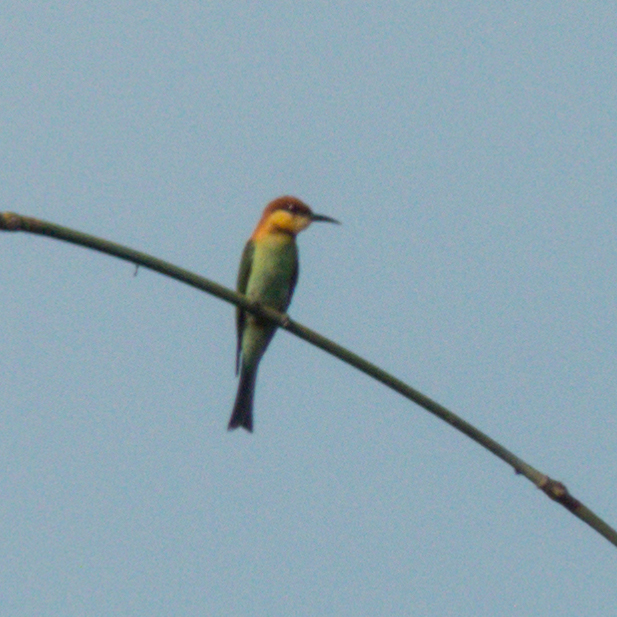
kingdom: Animalia
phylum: Chordata
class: Aves
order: Coraciiformes
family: Meropidae
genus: Merops
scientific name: Merops leschenaulti
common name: Chestnut-headed bee-eater
